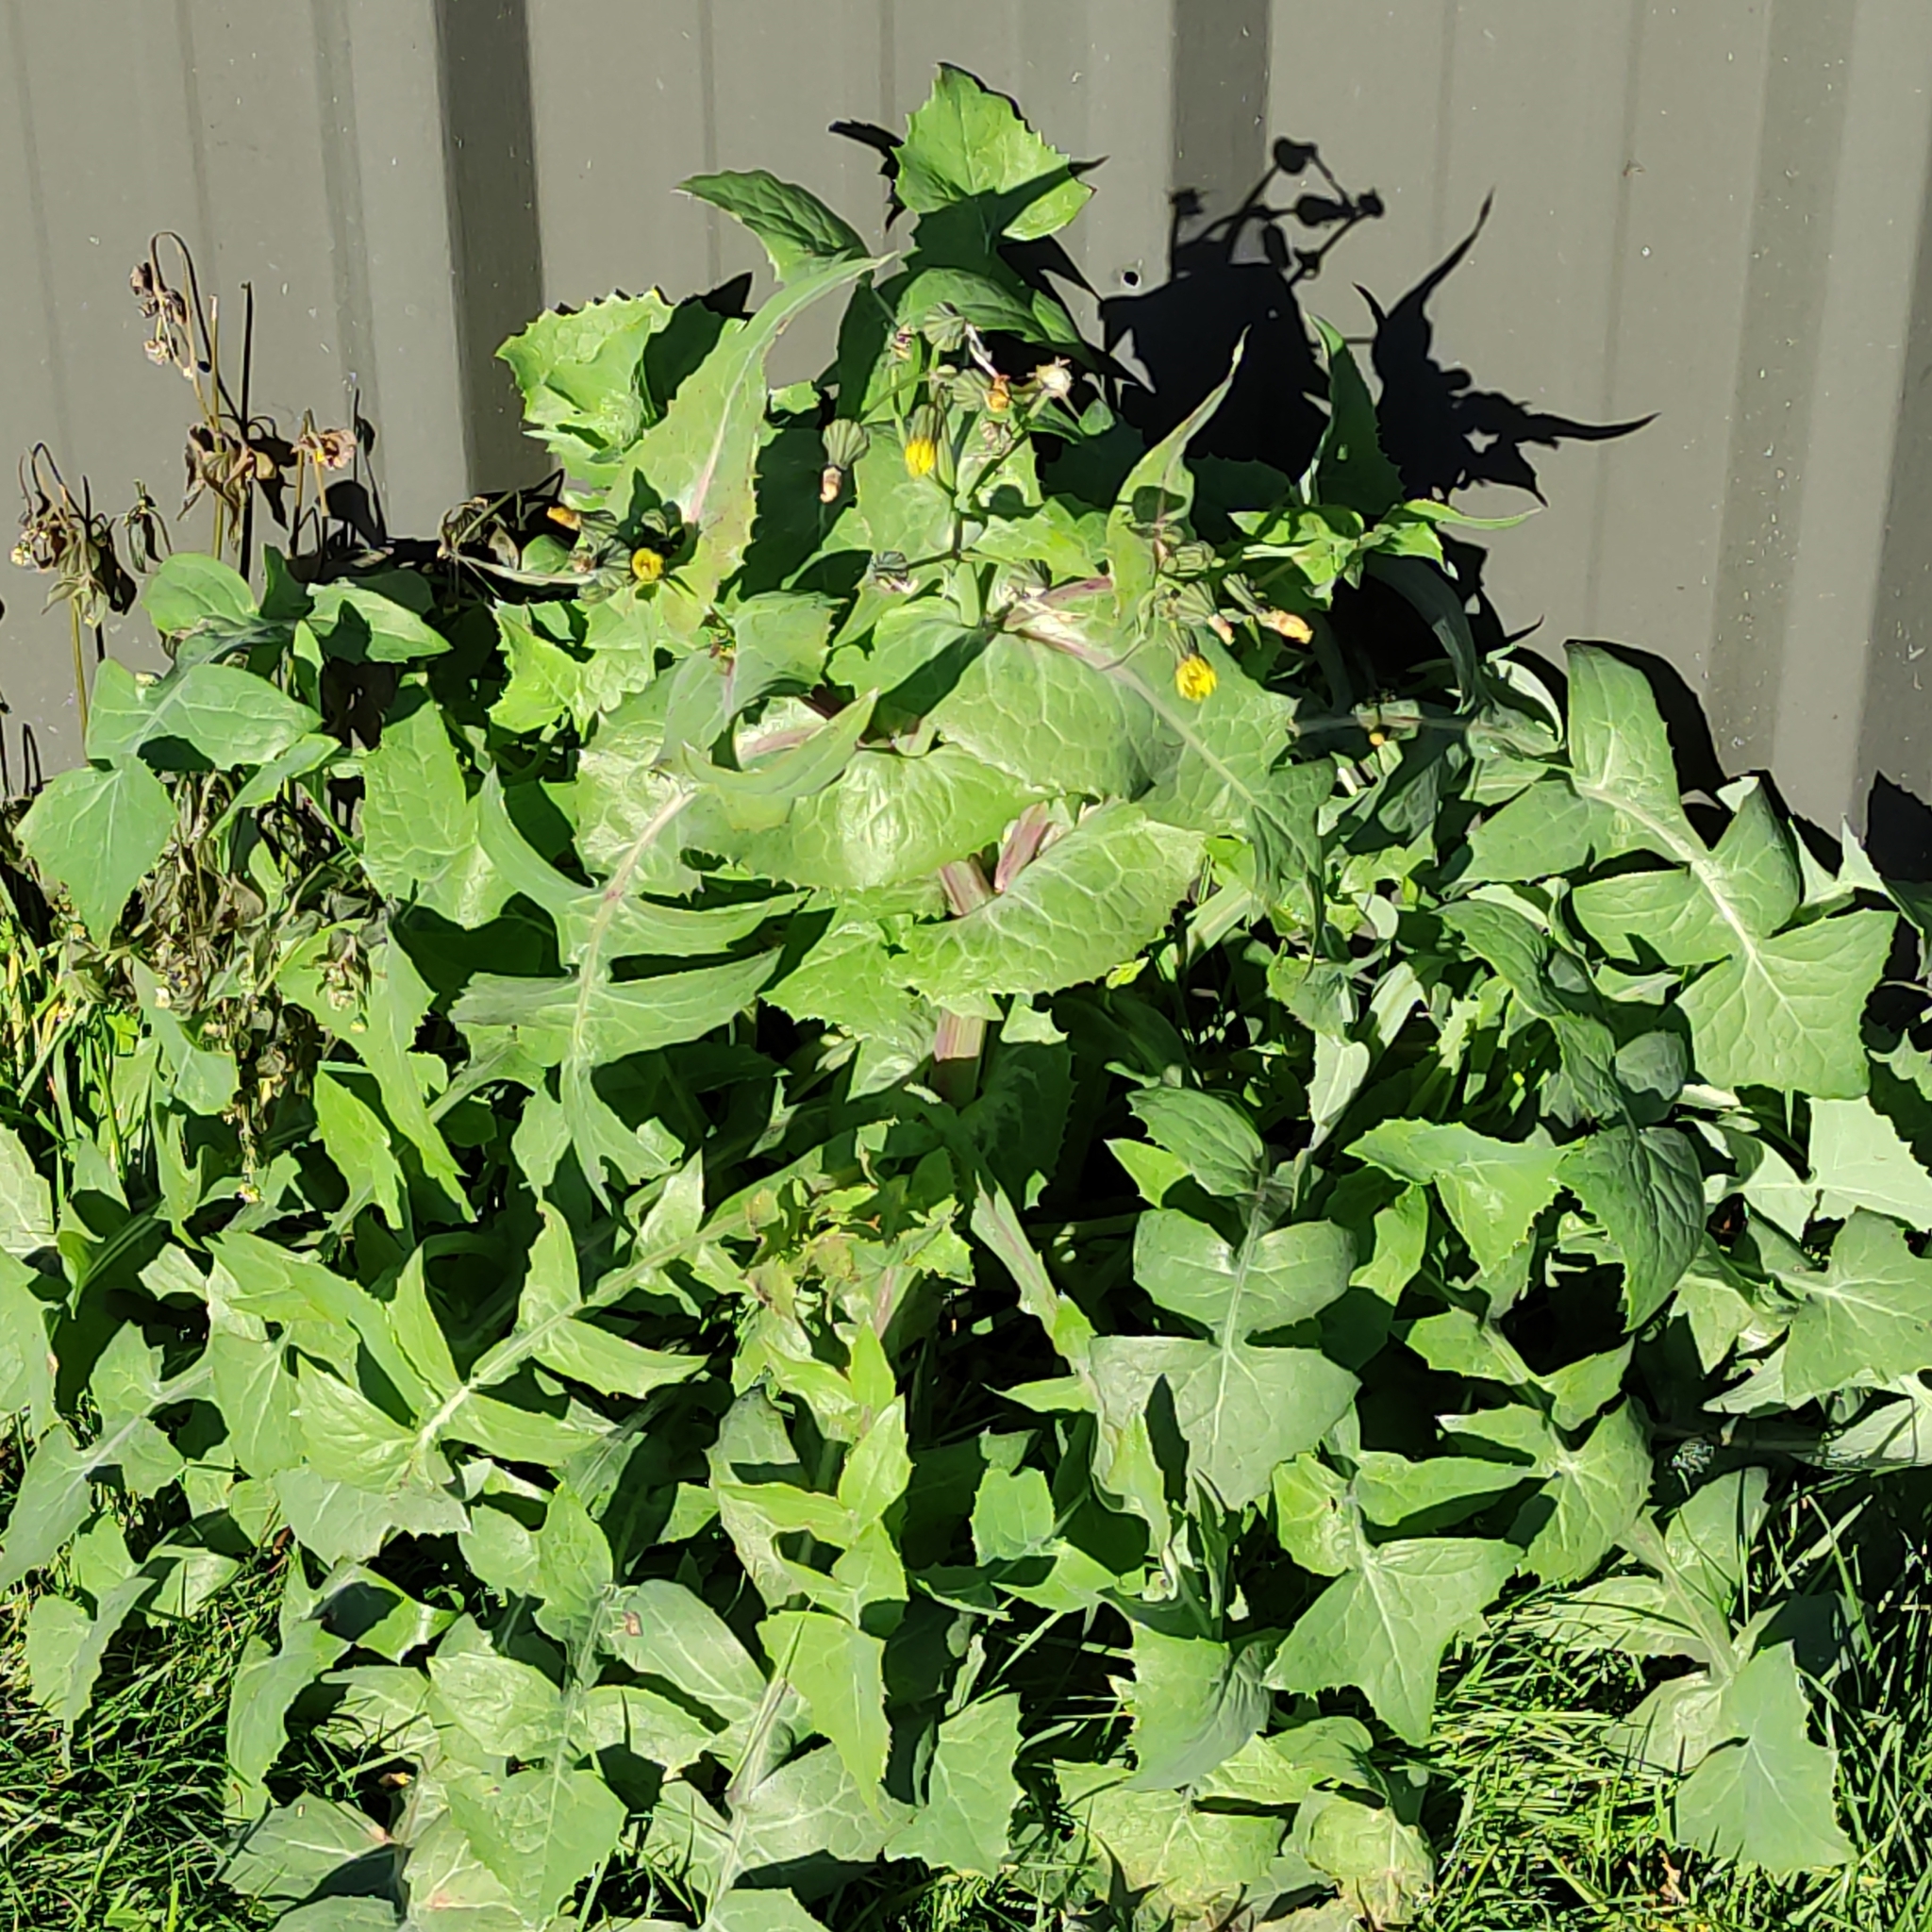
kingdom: Plantae
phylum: Tracheophyta
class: Magnoliopsida
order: Asterales
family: Asteraceae
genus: Sonchus
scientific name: Sonchus oleraceus
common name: Common sowthistle
